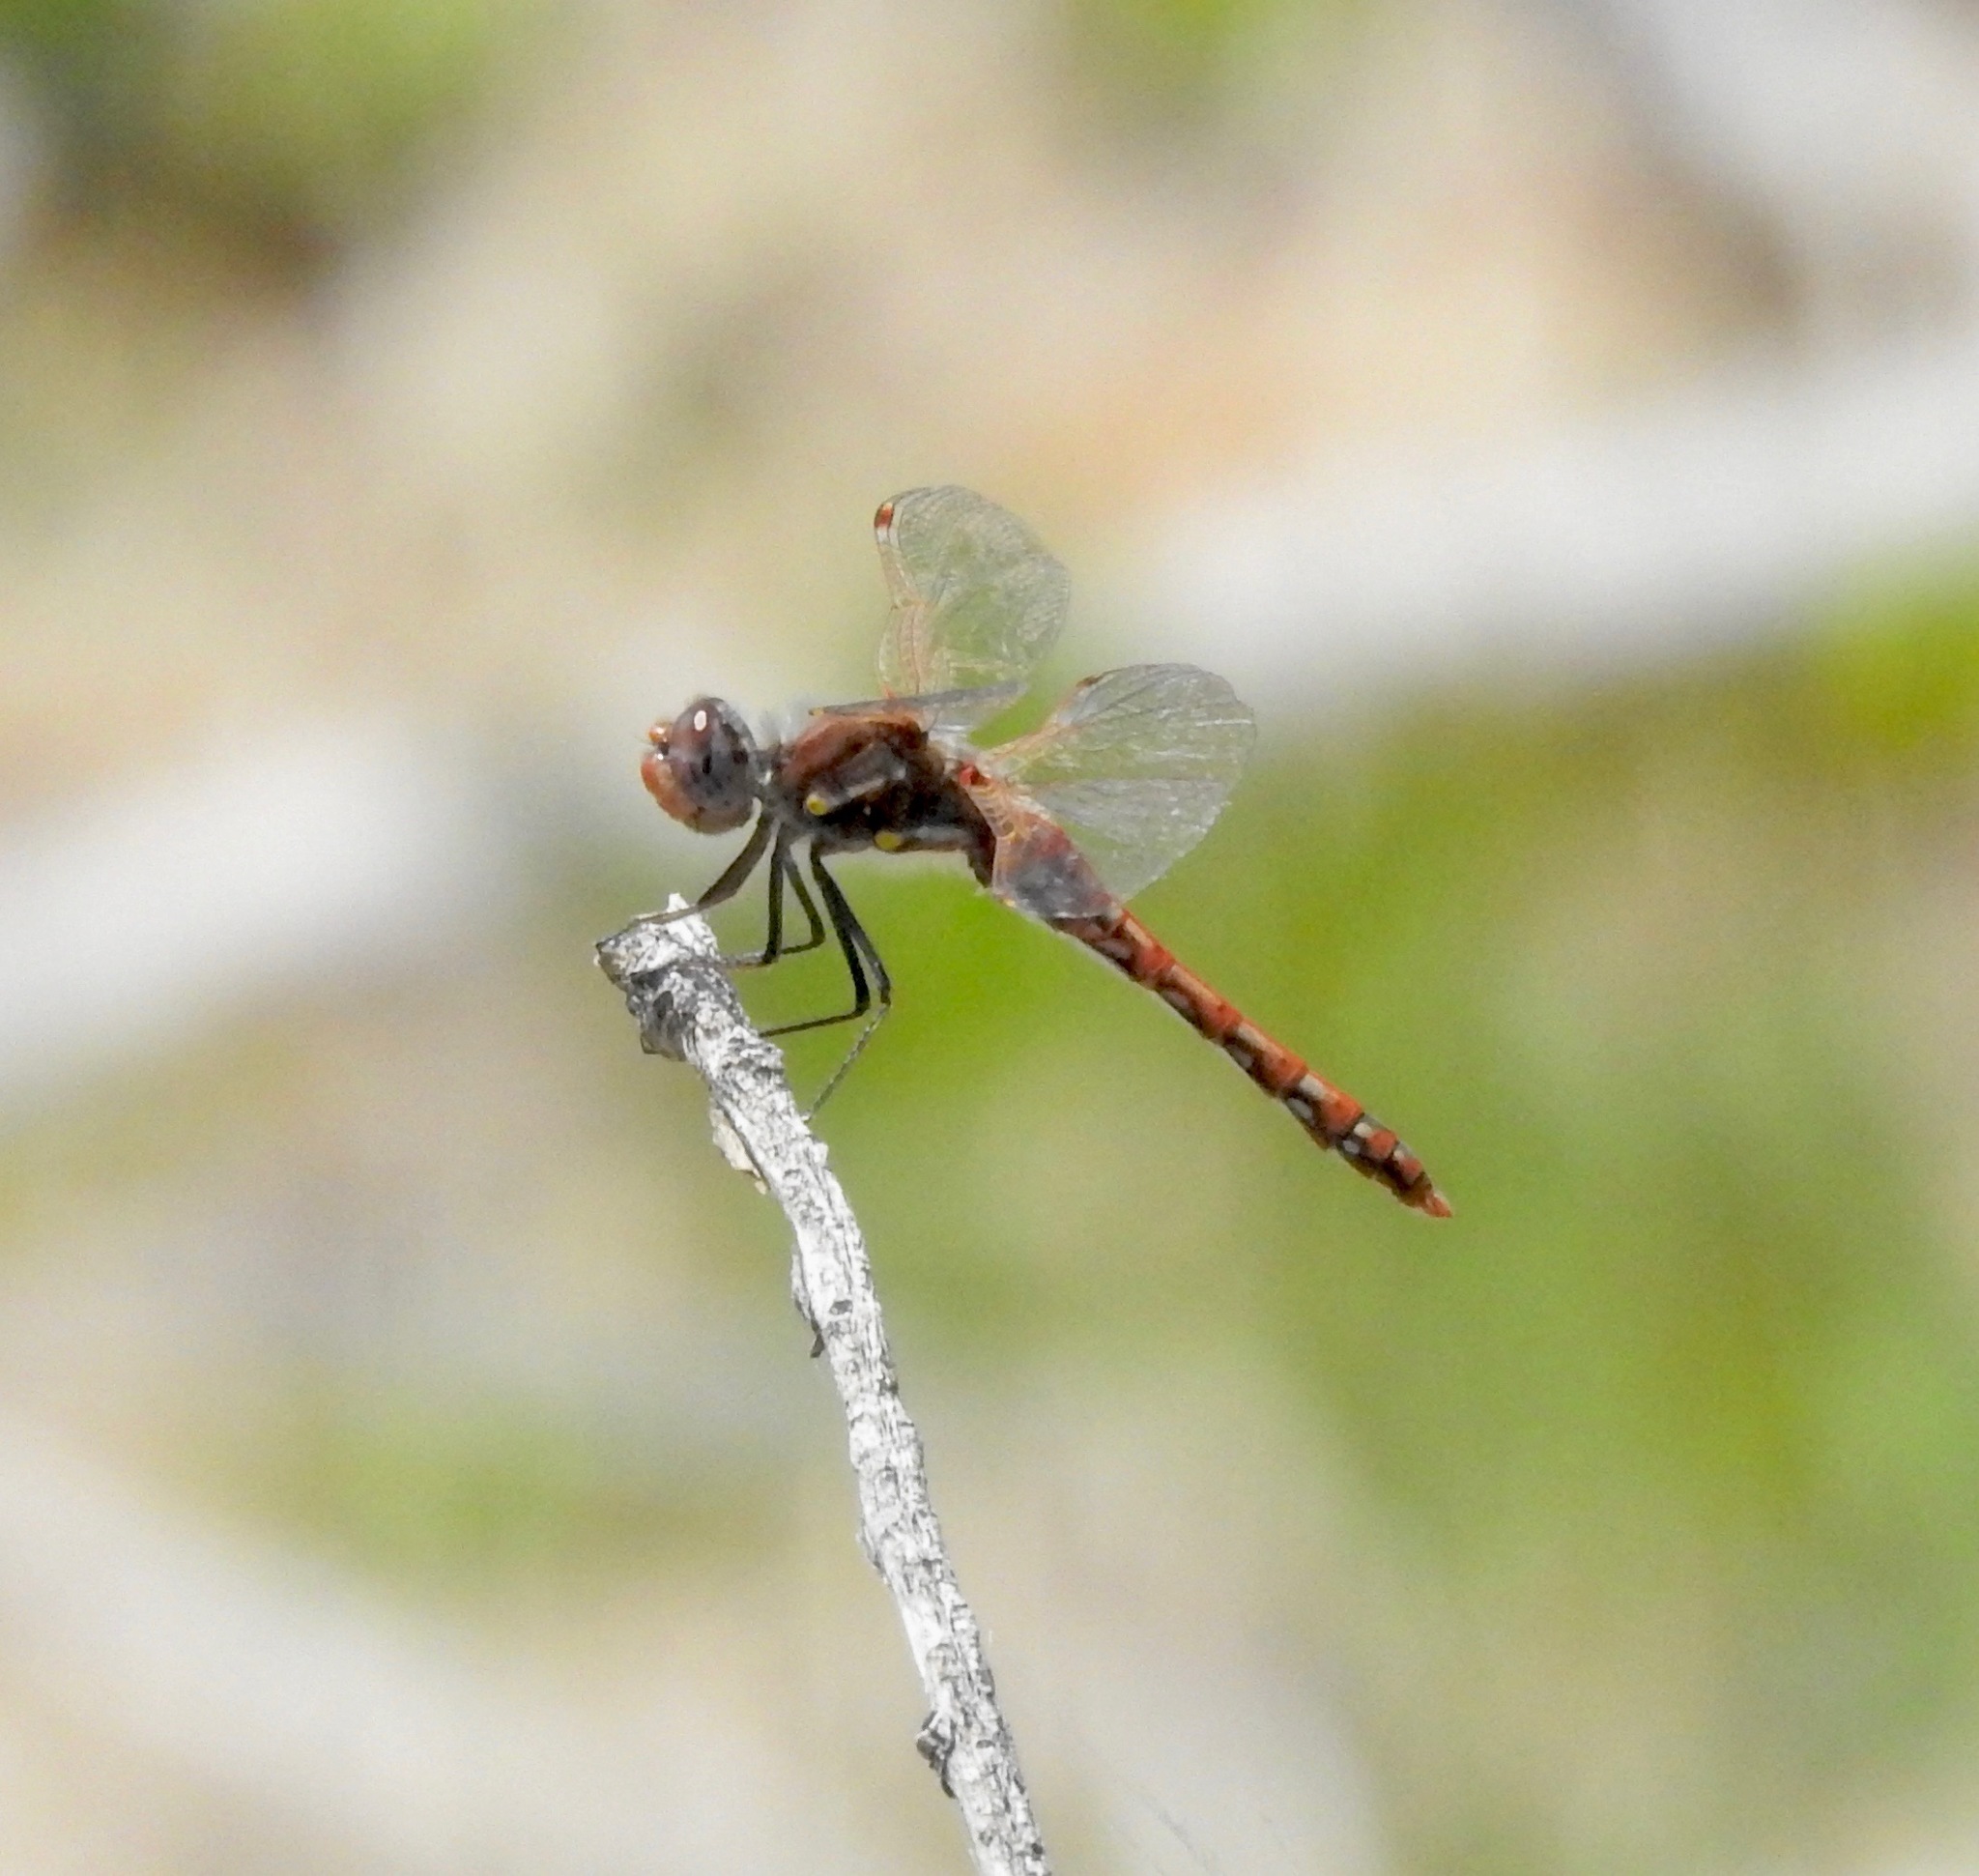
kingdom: Animalia
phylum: Arthropoda
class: Insecta
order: Odonata
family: Libellulidae
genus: Sympetrum
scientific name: Sympetrum corruptum
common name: Variegated meadowhawk
